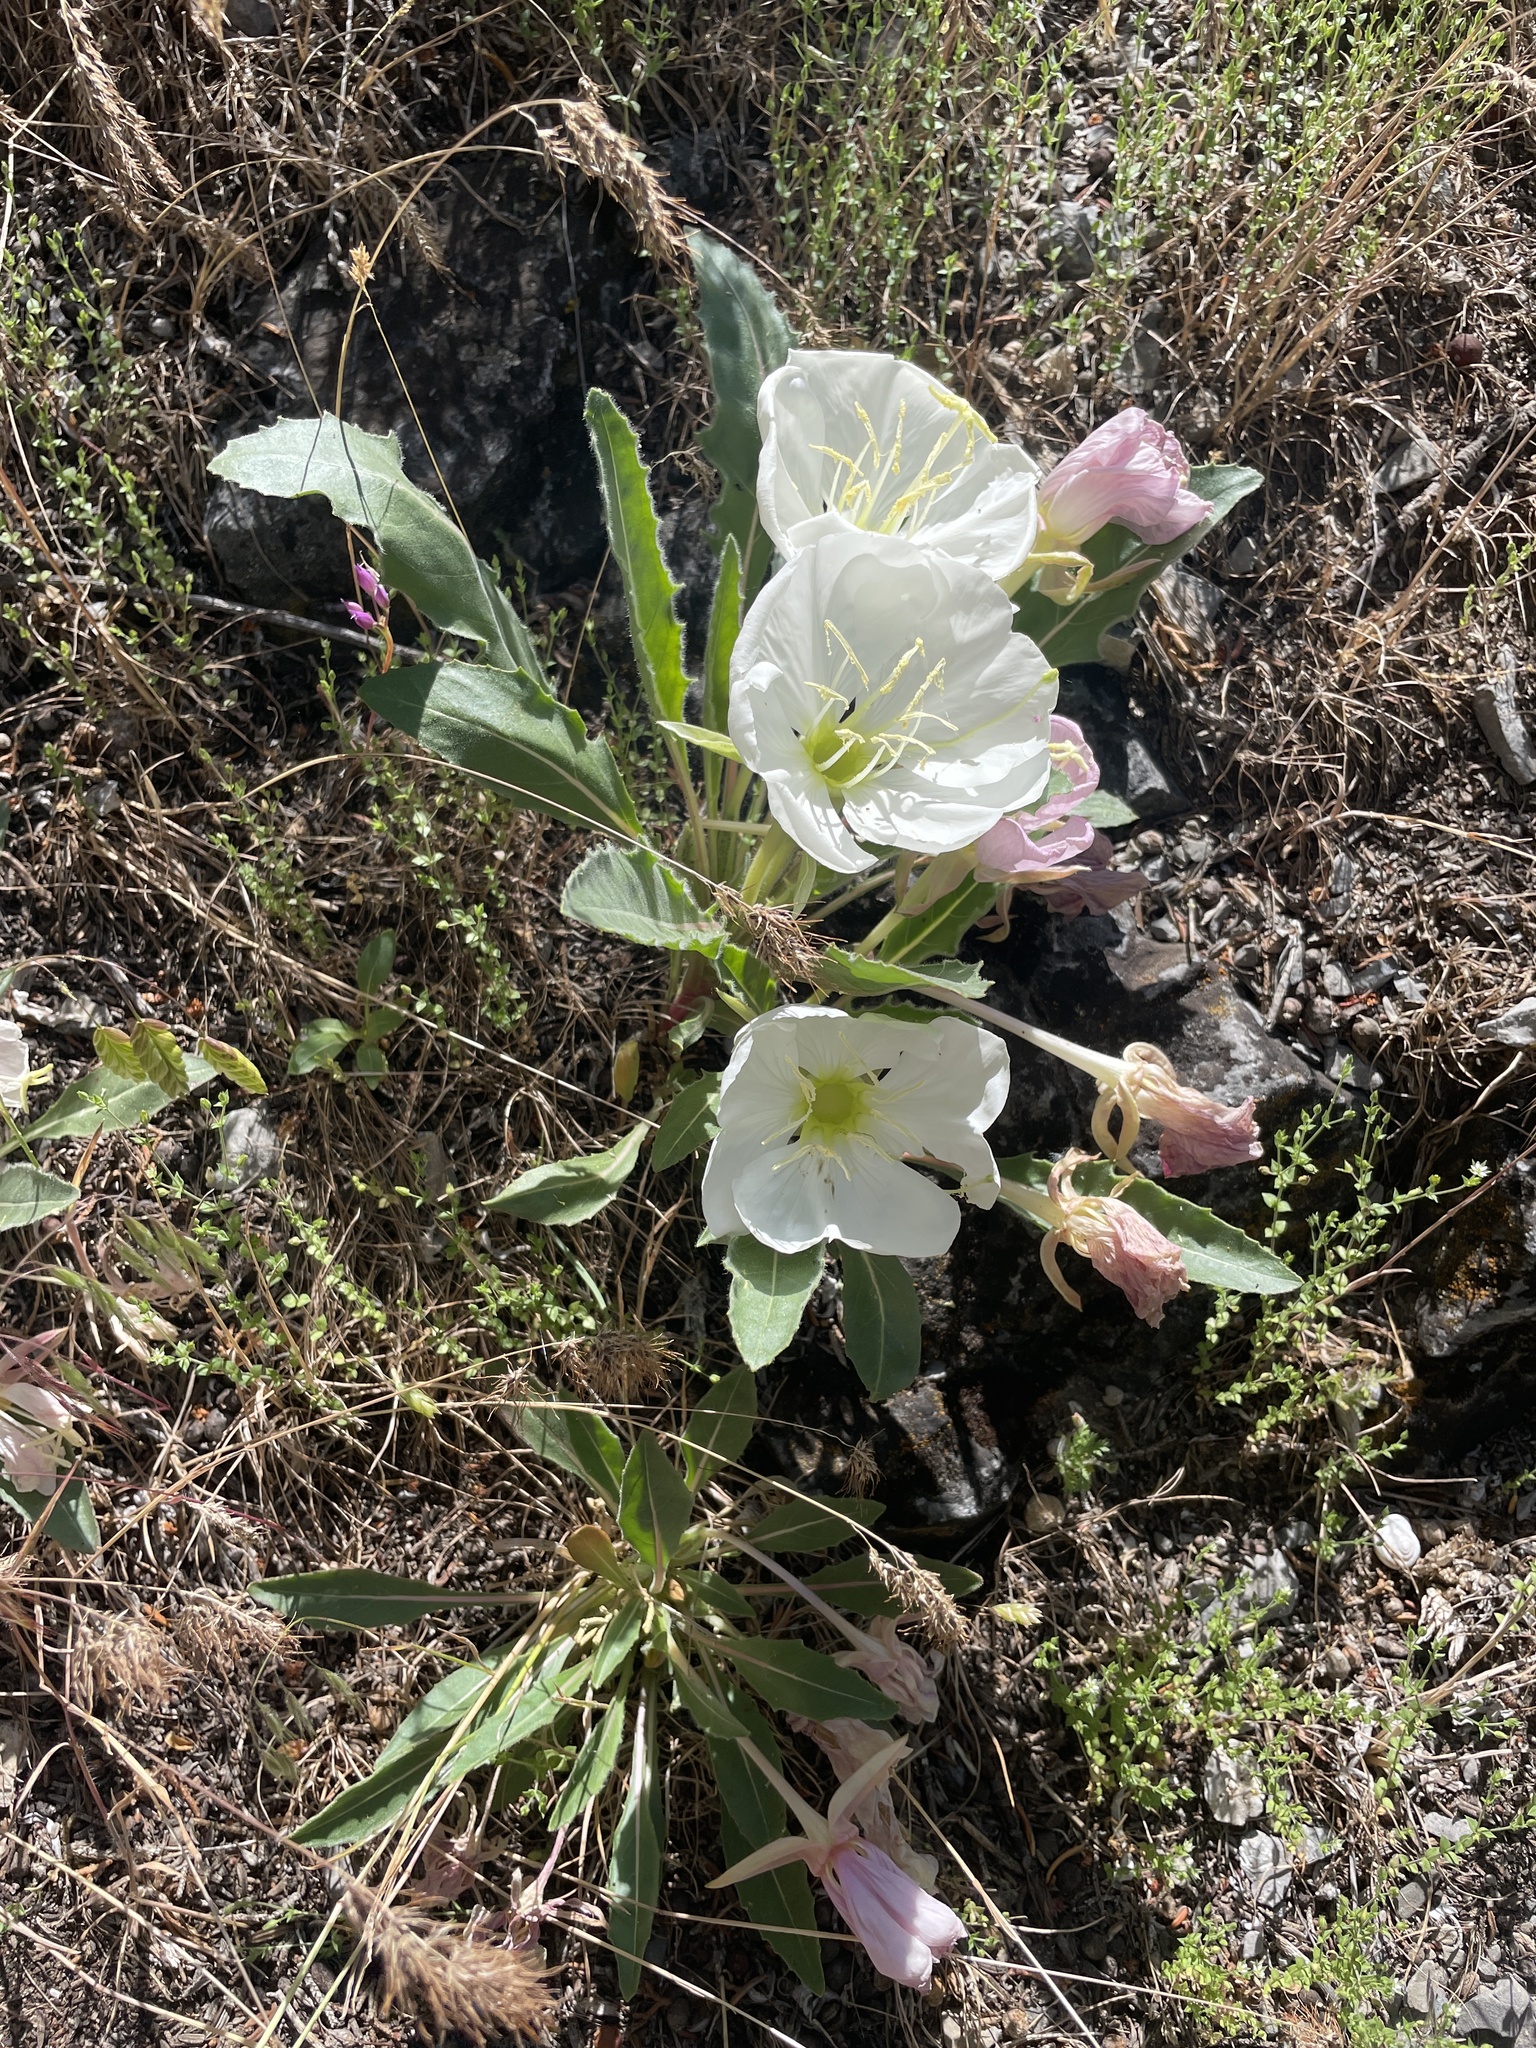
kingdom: Plantae
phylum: Tracheophyta
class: Magnoliopsida
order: Myrtales
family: Onagraceae
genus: Oenothera
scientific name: Oenothera cespitosa
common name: Tufted evening-primrose
